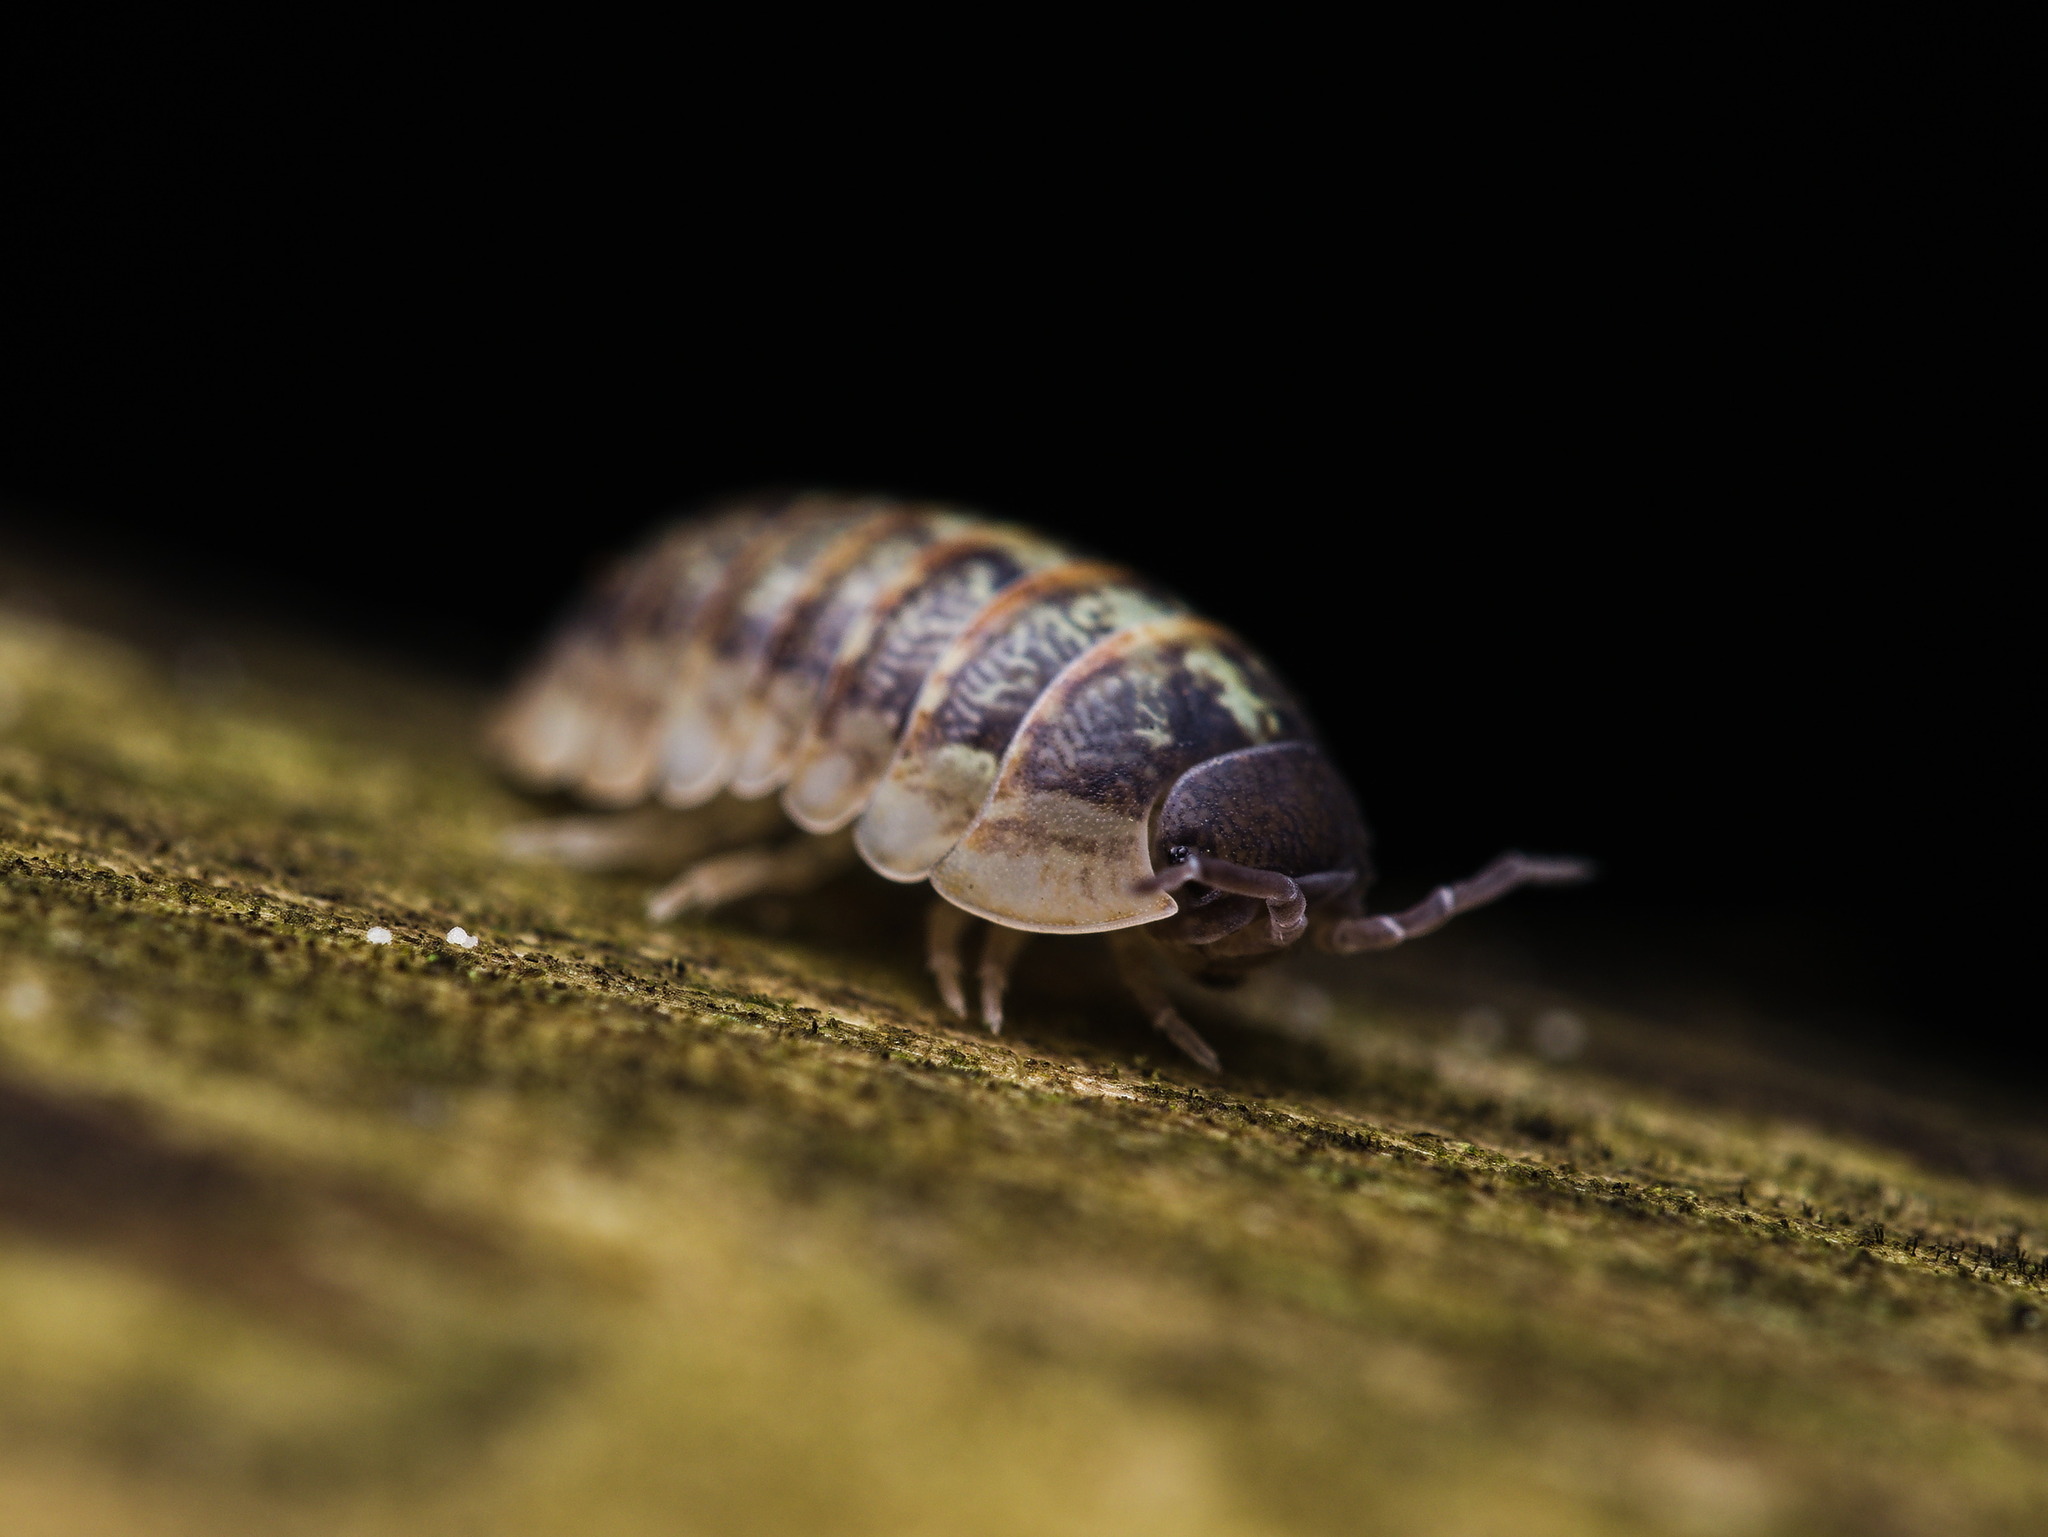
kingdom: Animalia
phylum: Arthropoda
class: Malacostraca
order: Isopoda
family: Armadillidiidae
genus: Armadillidium
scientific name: Armadillidium vulgare
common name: Common pill woodlouse
